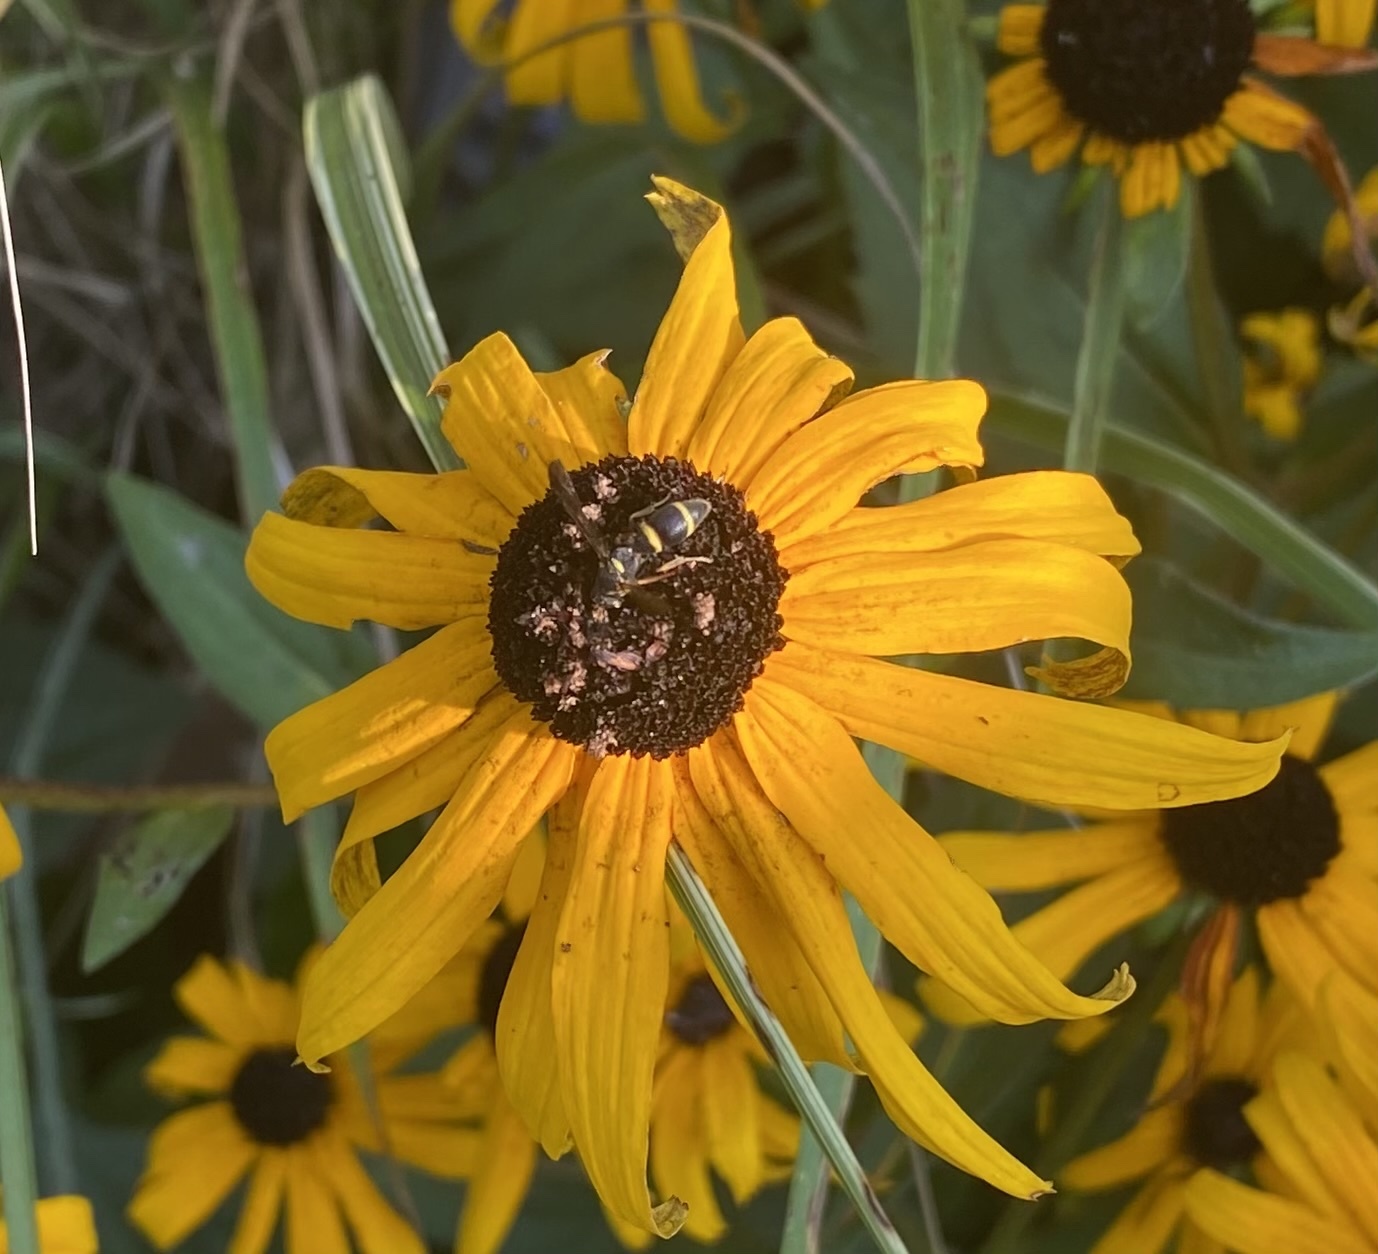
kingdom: Animalia
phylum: Arthropoda
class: Insecta
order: Hymenoptera
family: Eumenidae
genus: Parancistrocerus
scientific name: Parancistrocerus perennis
